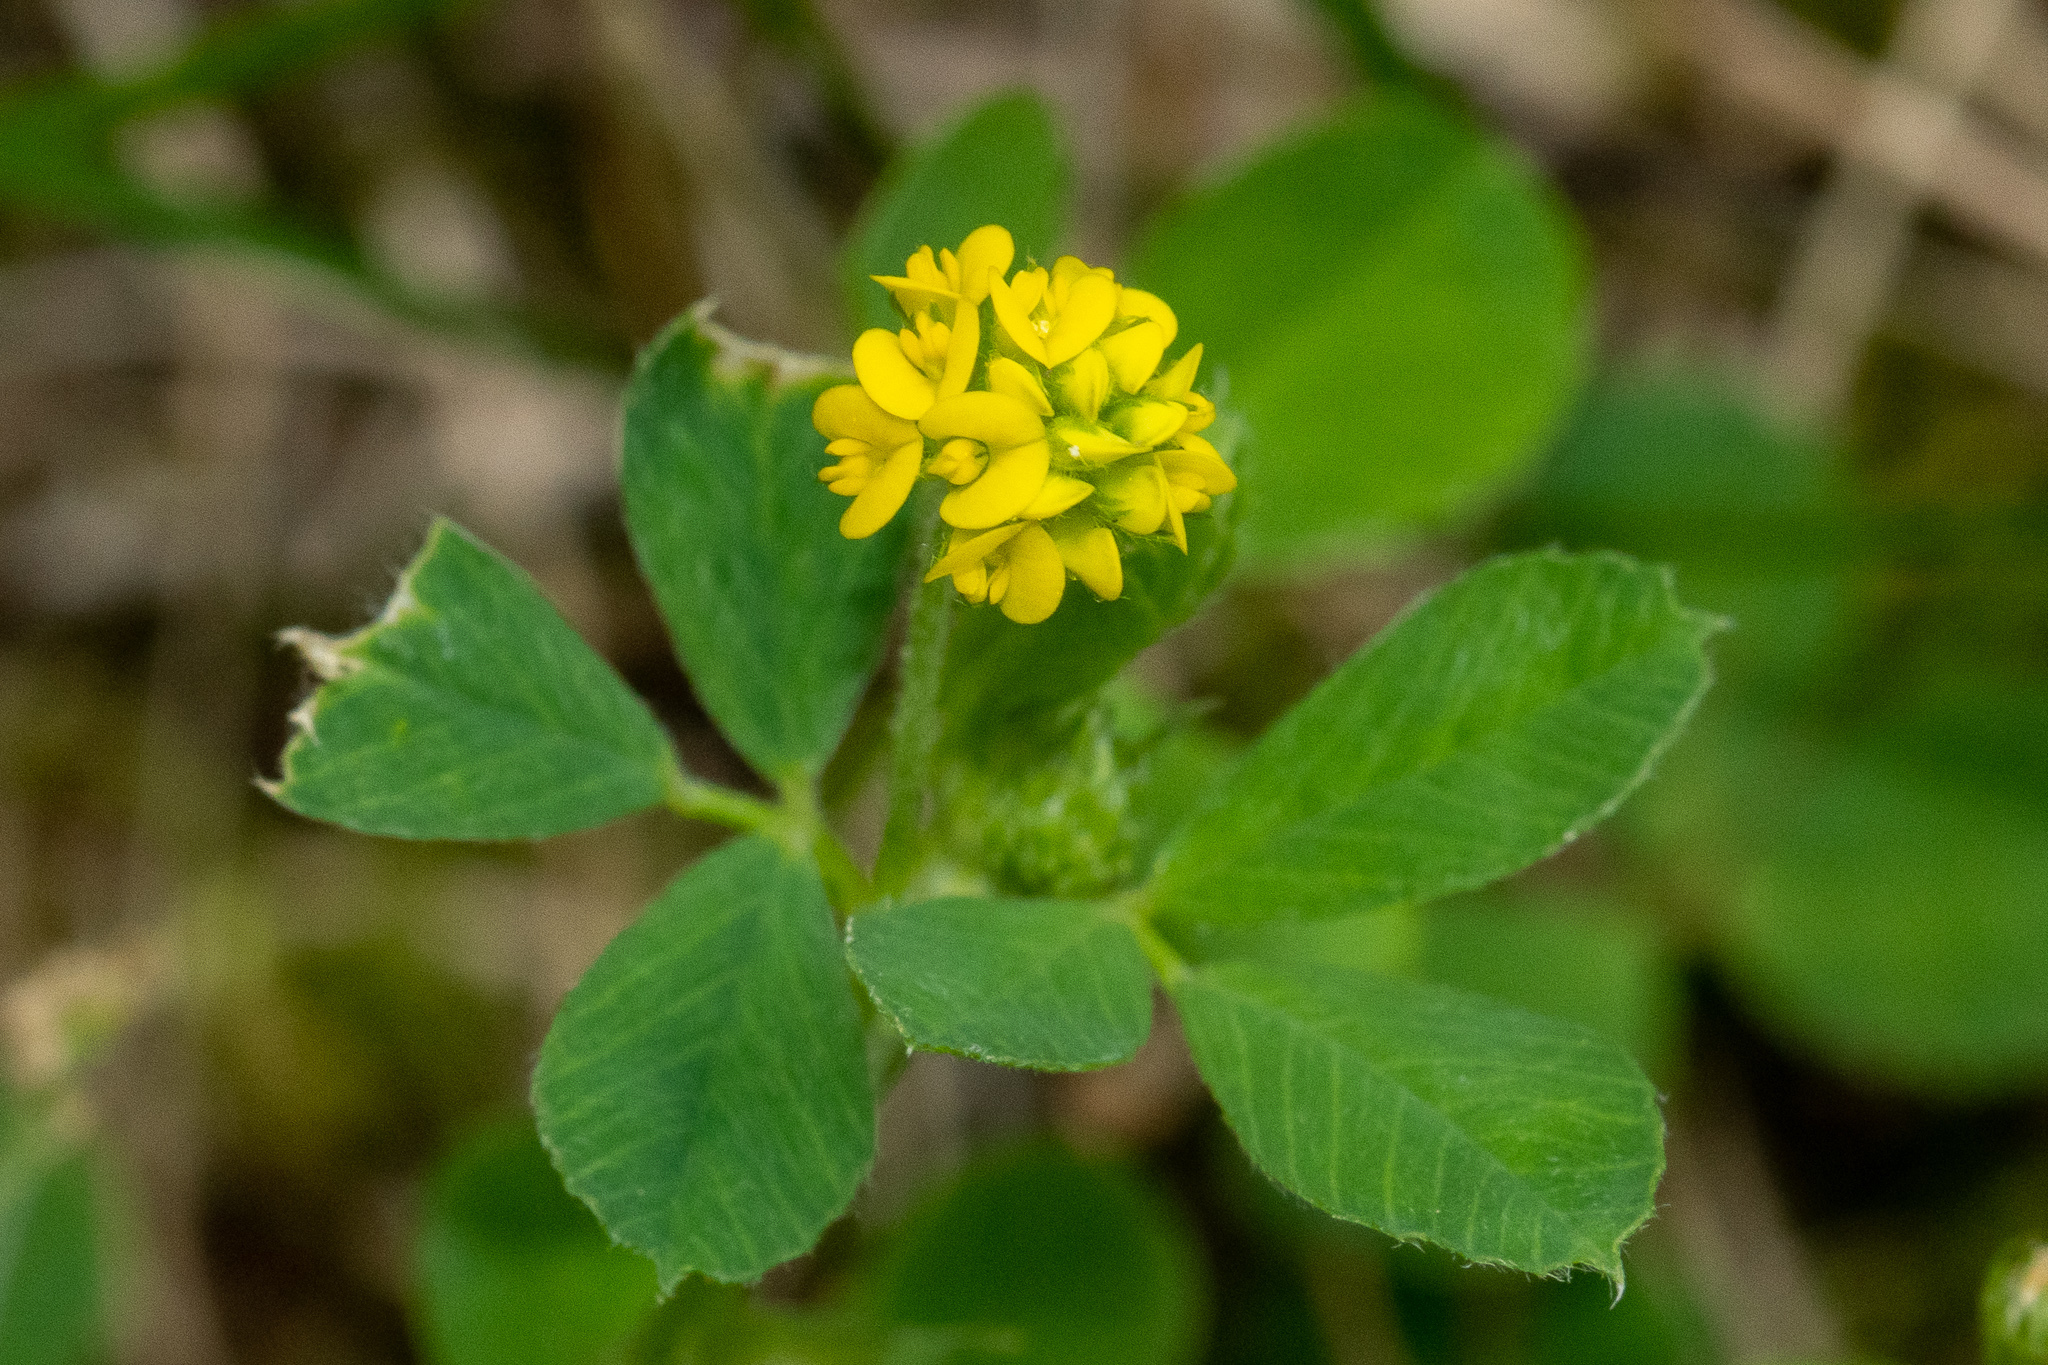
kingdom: Plantae
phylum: Tracheophyta
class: Magnoliopsida
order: Fabales
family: Fabaceae
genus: Medicago
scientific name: Medicago lupulina
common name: Black medick
